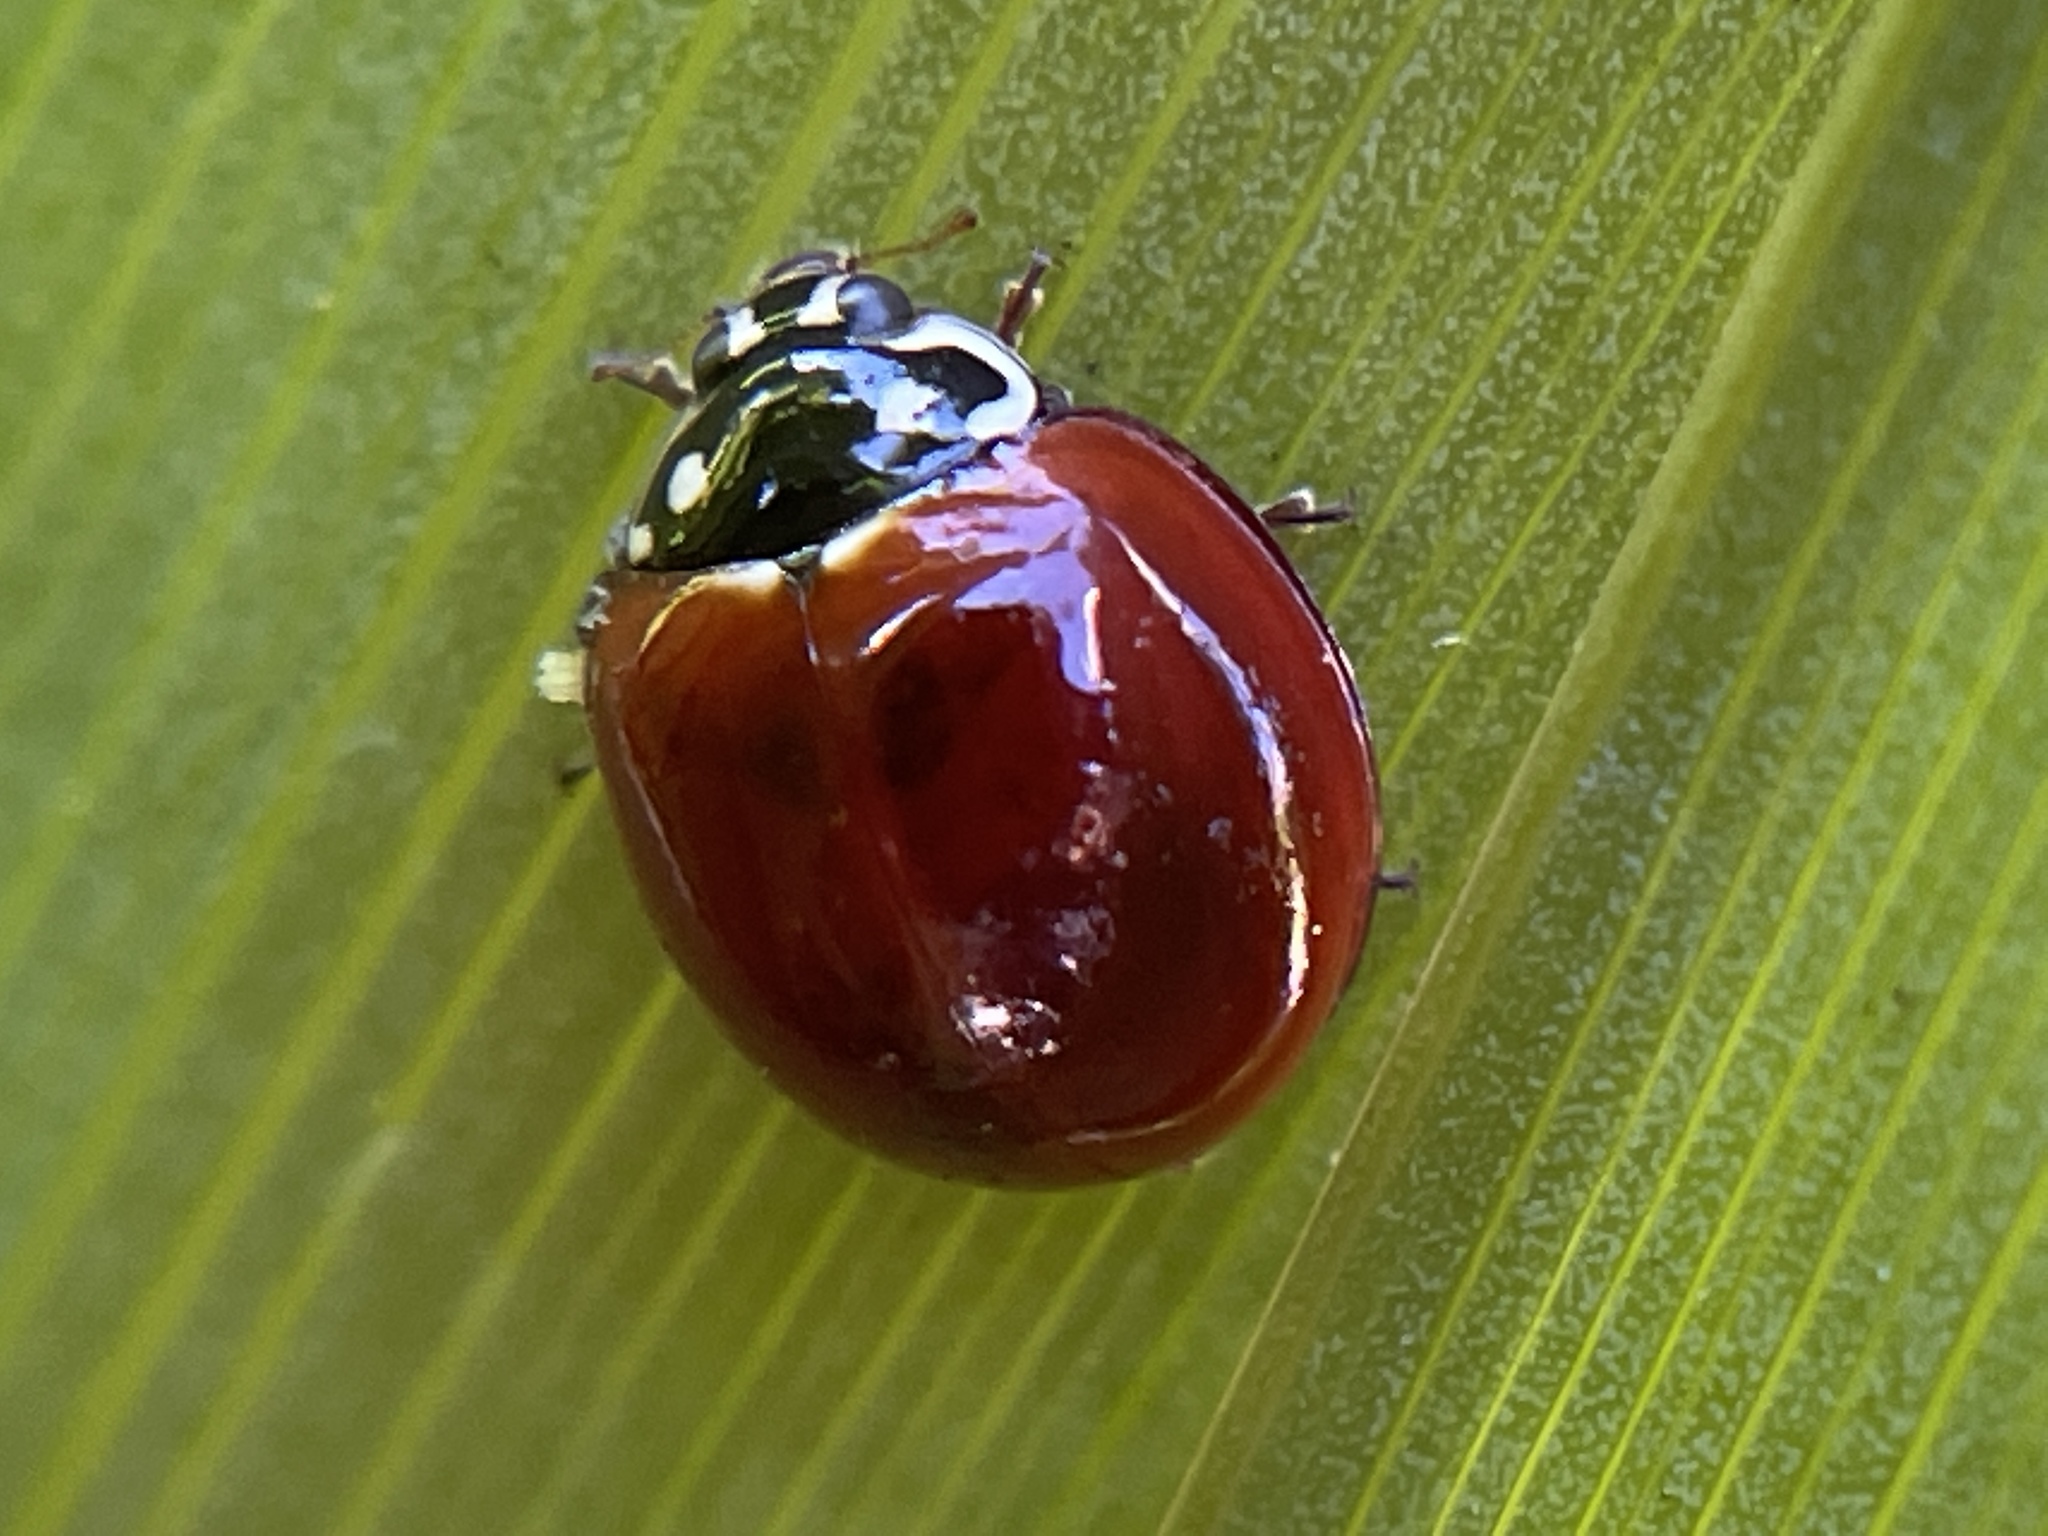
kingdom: Animalia
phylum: Arthropoda
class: Insecta
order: Coleoptera
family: Coccinellidae
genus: Cycloneda
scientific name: Cycloneda sanguinea
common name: Ladybird beetle
